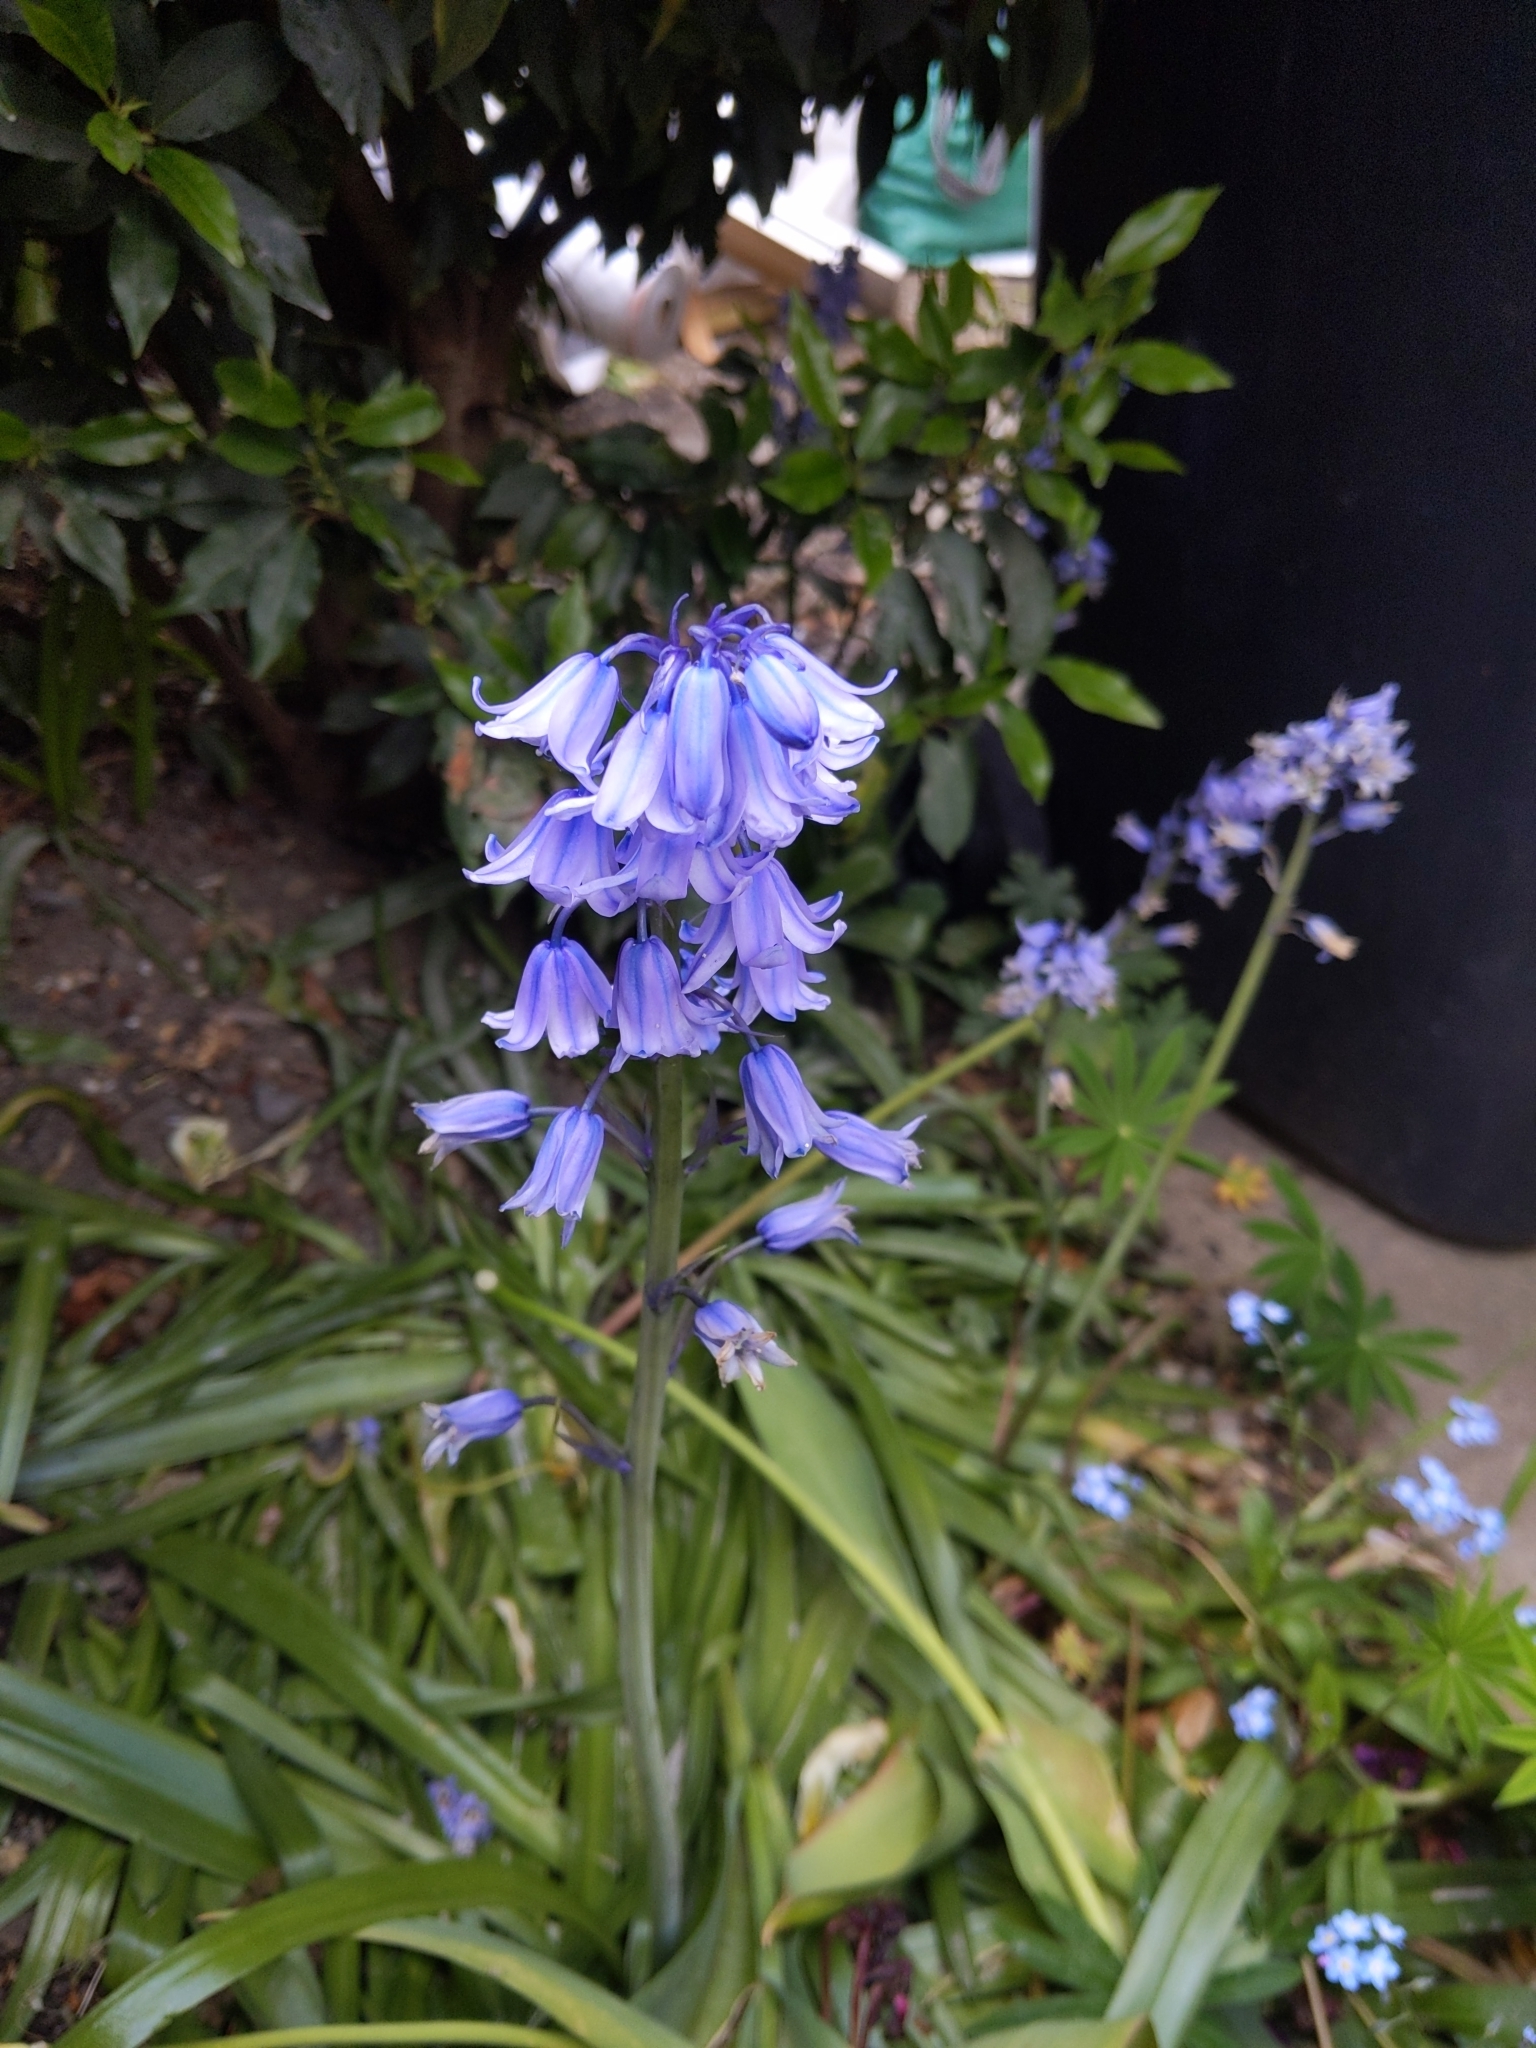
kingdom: Plantae
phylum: Tracheophyta
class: Liliopsida
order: Asparagales
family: Asparagaceae
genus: Hyacinthoides
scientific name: Hyacinthoides massartiana
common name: Hyacinthoides
